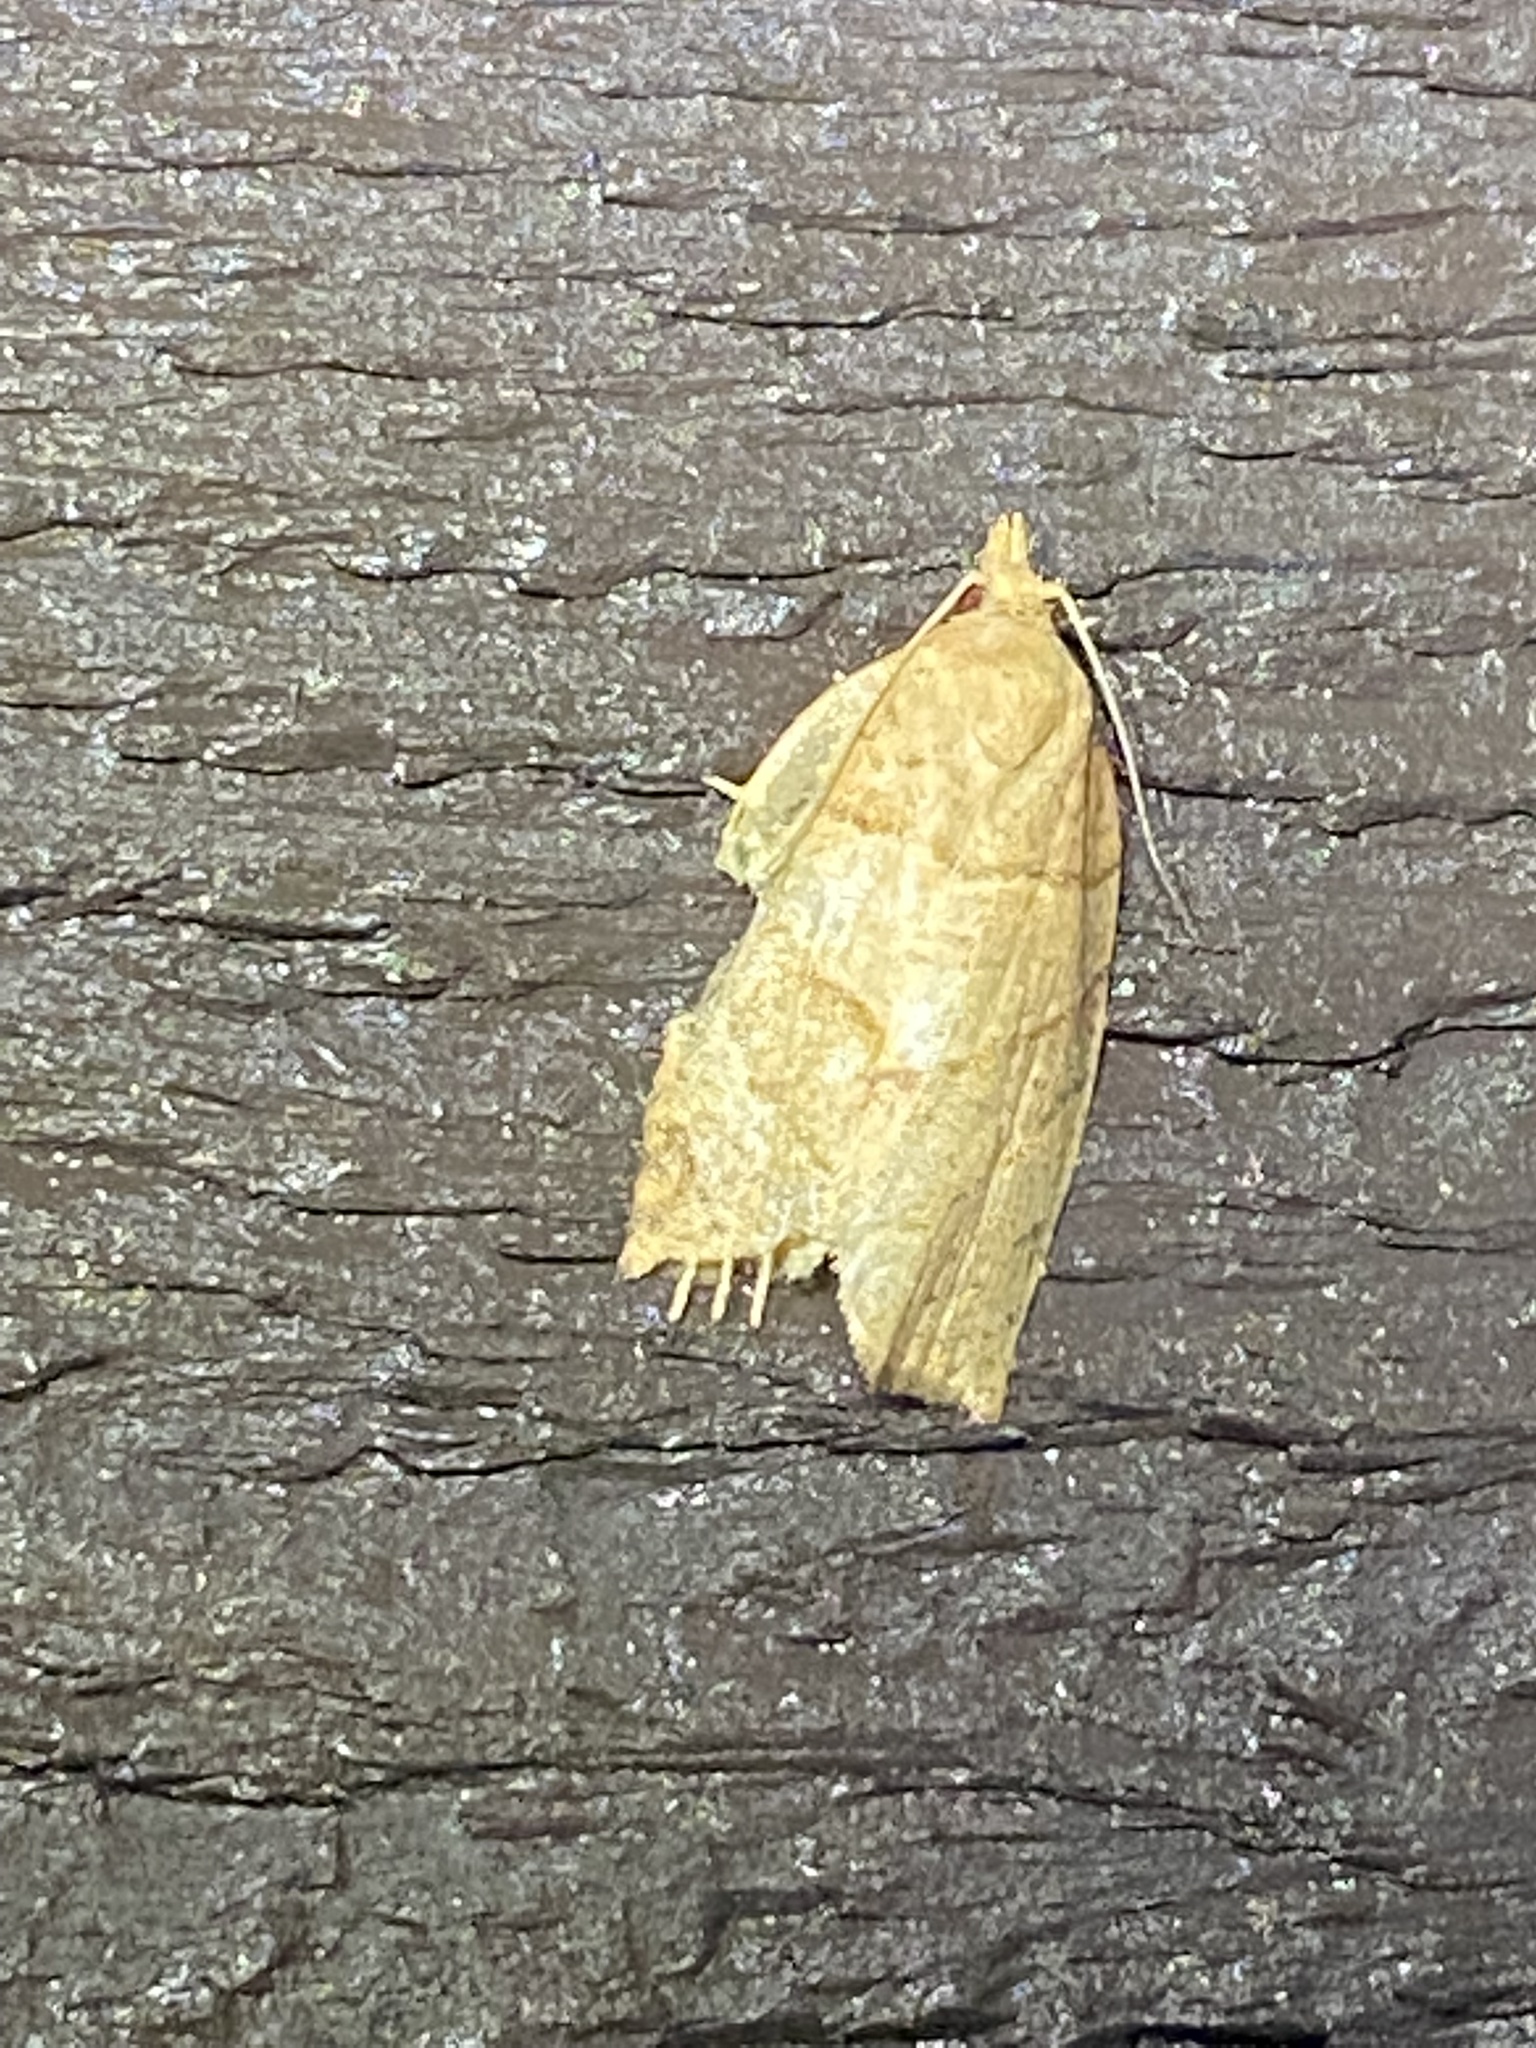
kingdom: Animalia
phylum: Arthropoda
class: Insecta
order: Lepidoptera
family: Tortricidae
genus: Pandemis
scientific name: Pandemis lamprosana
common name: Woodgrain leafroller moth
